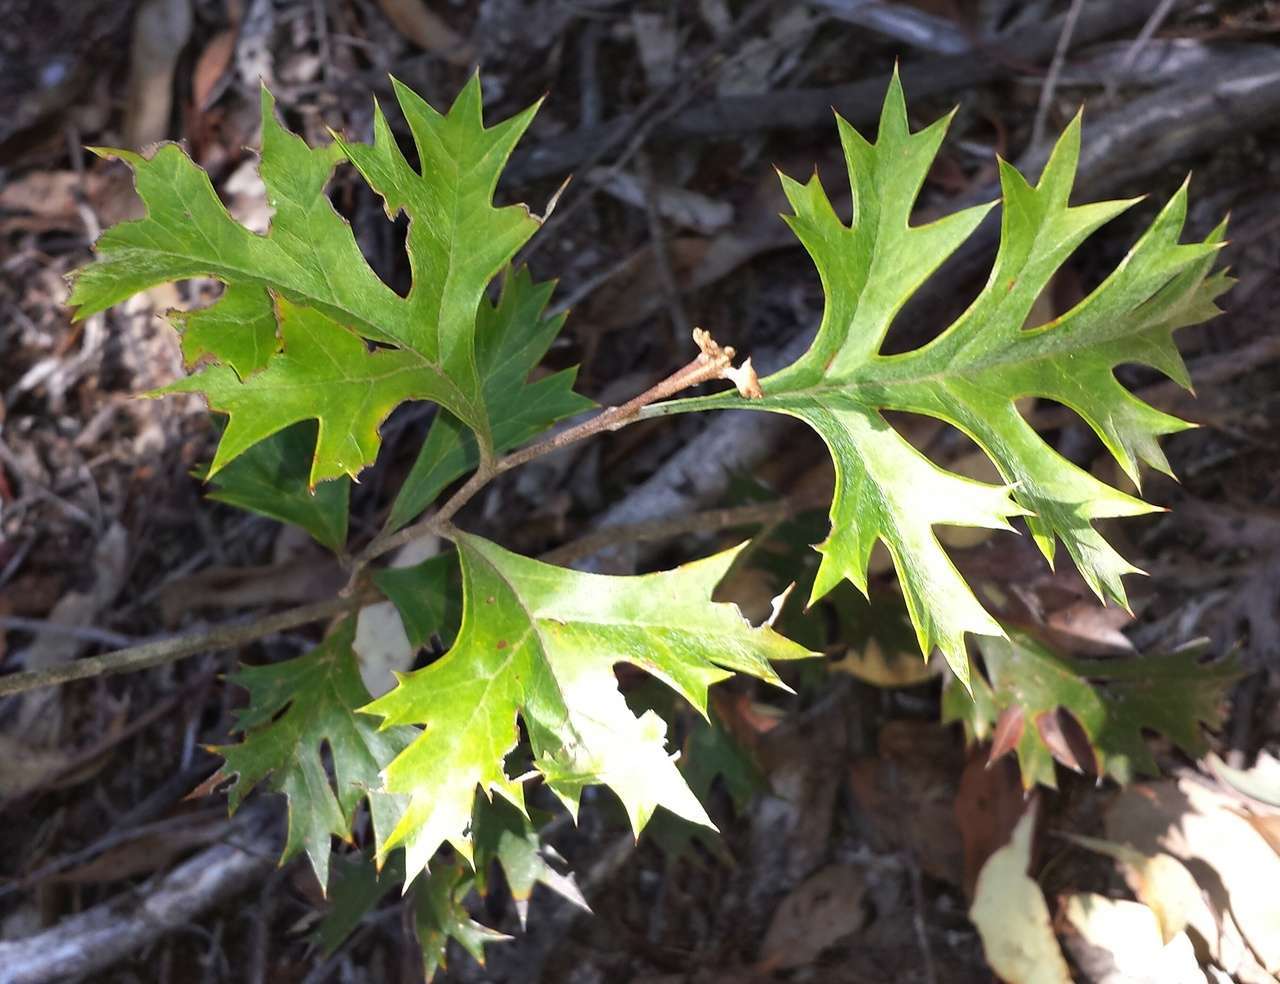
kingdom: Plantae
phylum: Tracheophyta
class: Magnoliopsida
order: Proteales
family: Proteaceae
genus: Grevillea
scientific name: Grevillea ramosissima
